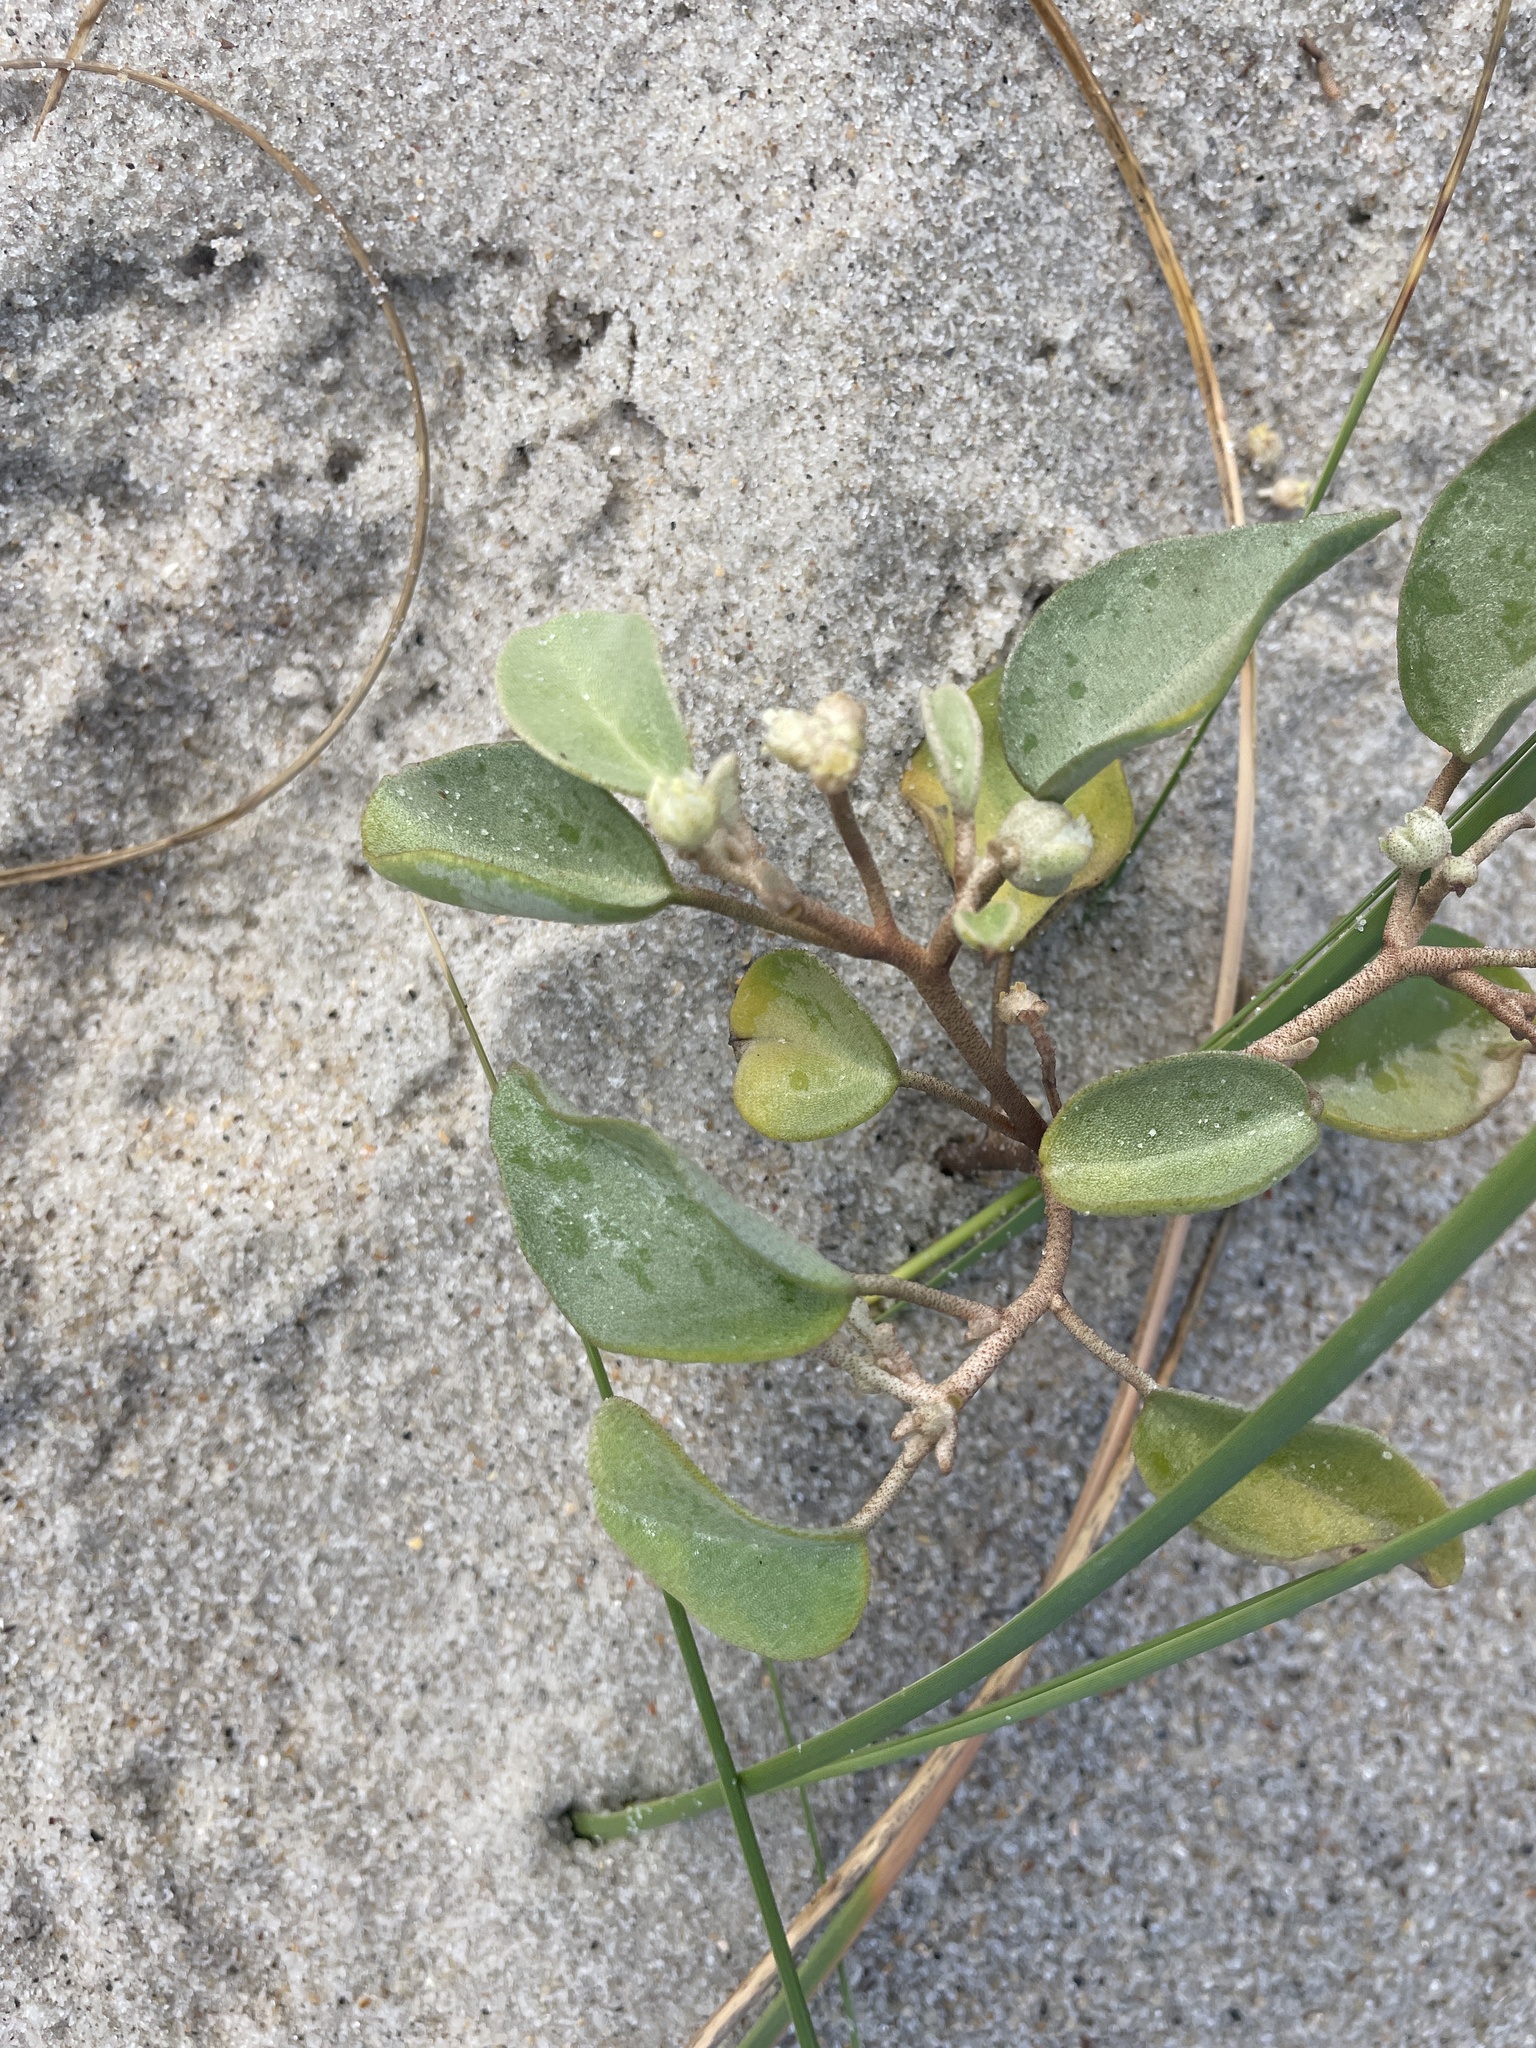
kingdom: Plantae
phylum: Tracheophyta
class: Magnoliopsida
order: Malpighiales
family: Euphorbiaceae
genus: Croton
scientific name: Croton punctatus
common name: Beach-tea
